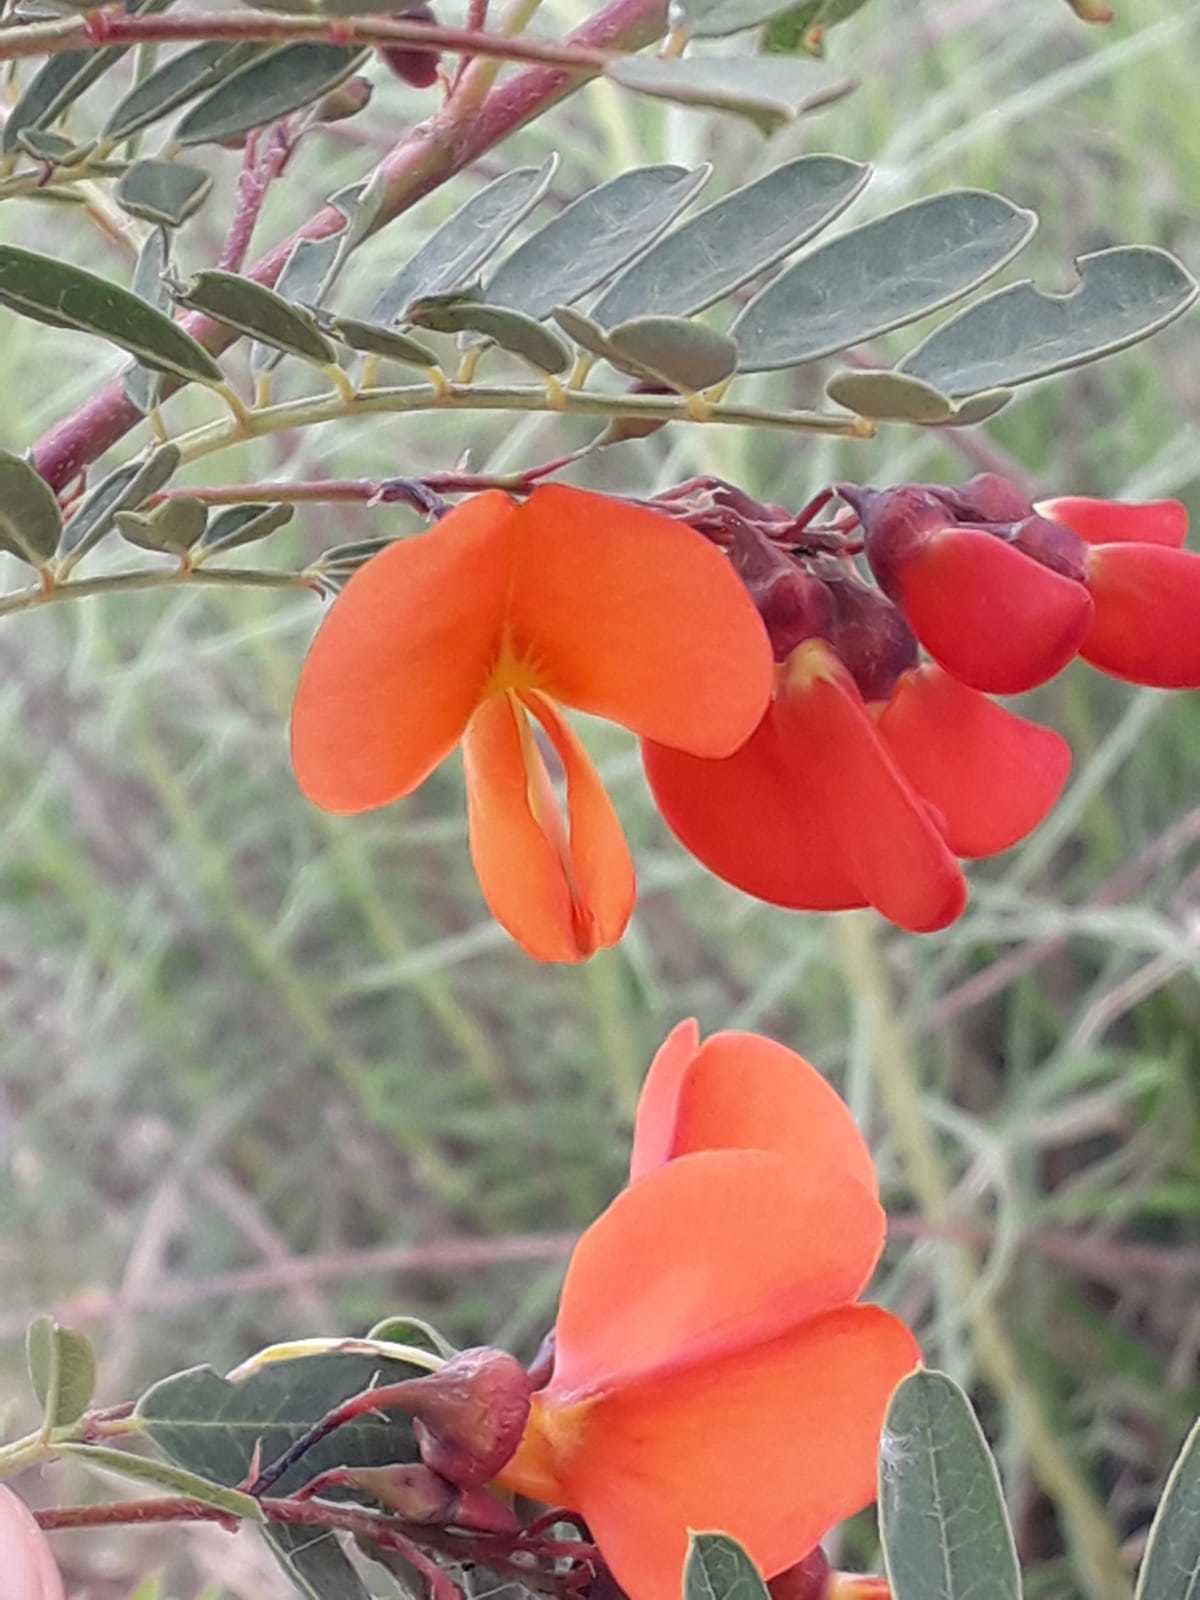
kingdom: Plantae
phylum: Tracheophyta
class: Magnoliopsida
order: Fabales
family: Fabaceae
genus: Sesbania
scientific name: Sesbania punicea
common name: Rattlebox
